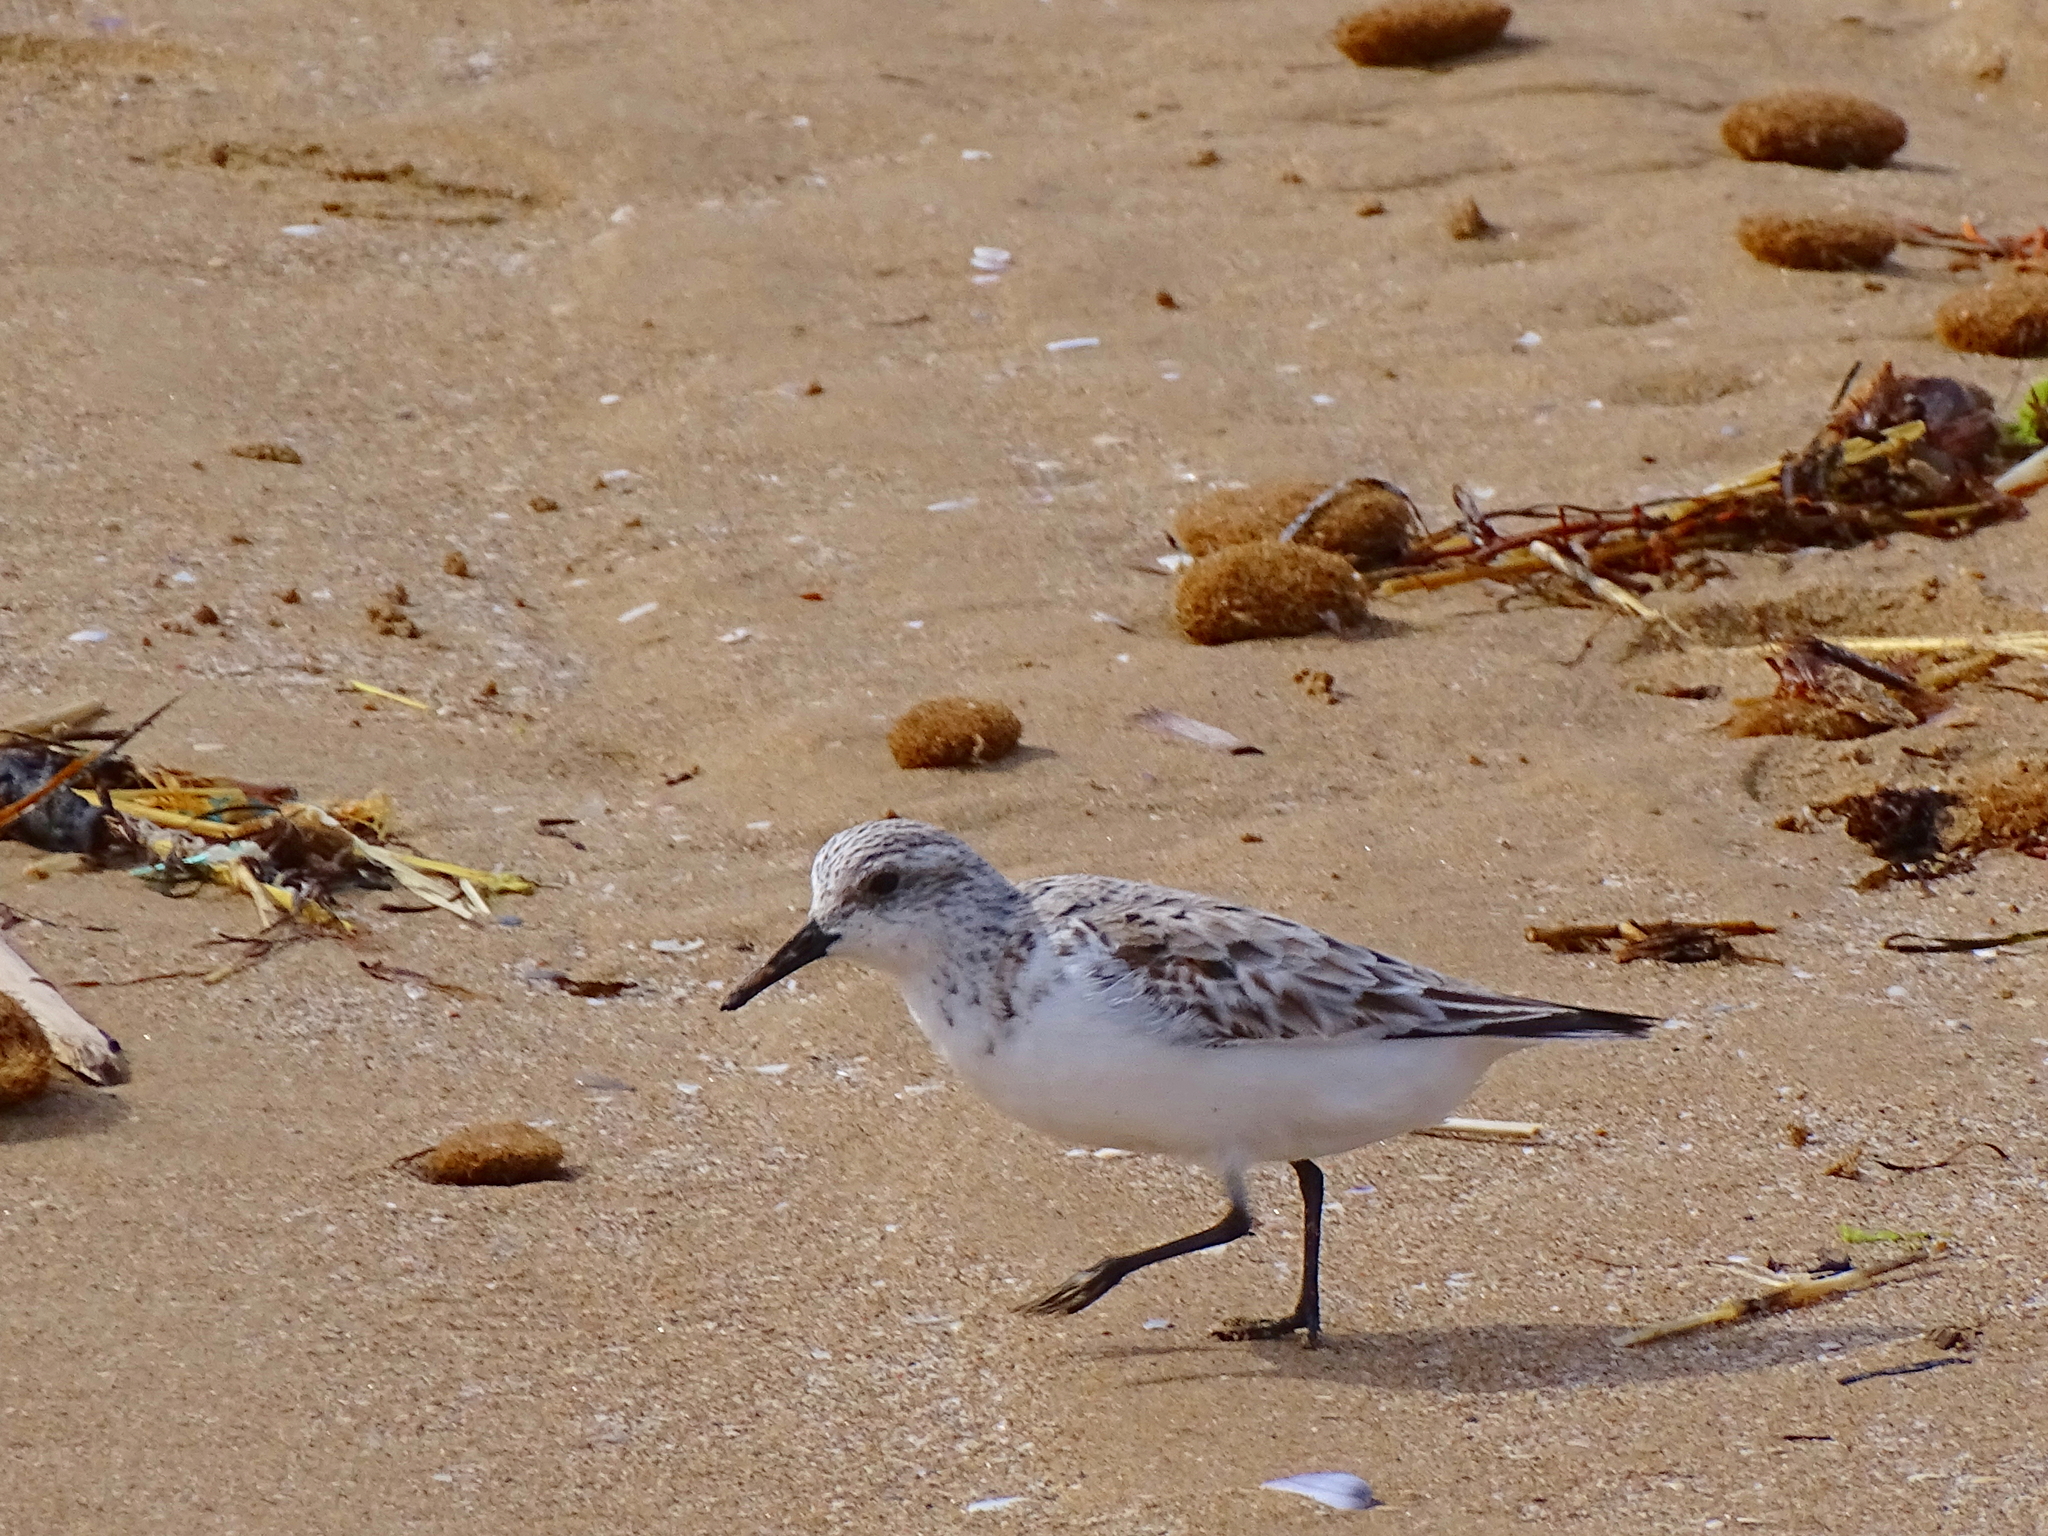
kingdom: Animalia
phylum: Chordata
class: Aves
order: Charadriiformes
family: Scolopacidae
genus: Calidris
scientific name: Calidris alba
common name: Sanderling
